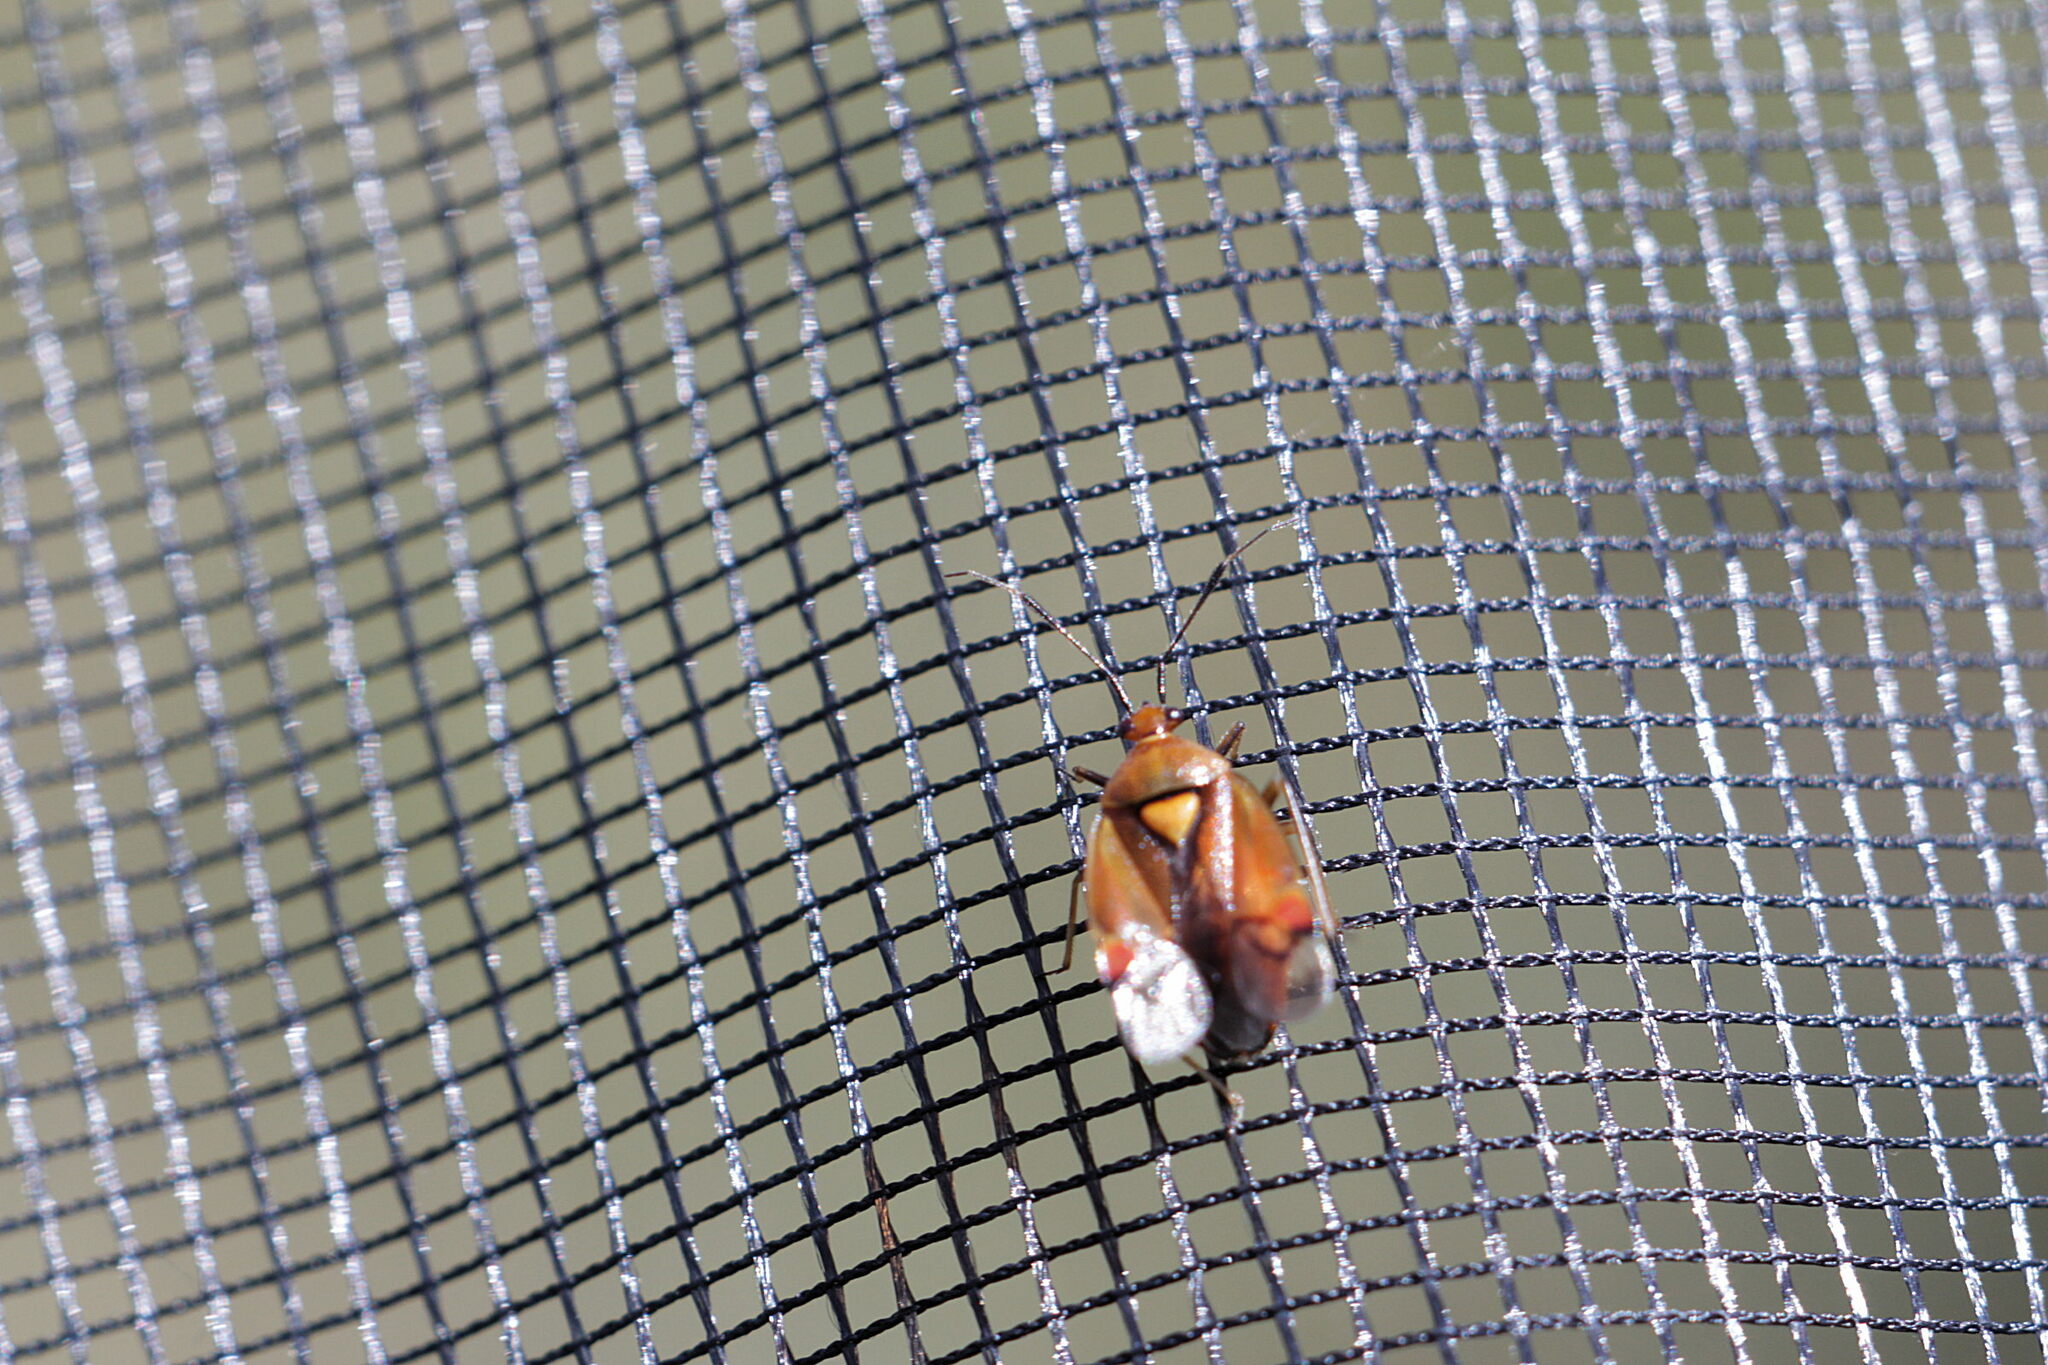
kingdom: Animalia
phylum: Arthropoda
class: Insecta
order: Hemiptera
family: Miridae
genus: Deraeocoris
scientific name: Deraeocoris ruber
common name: Plant bug
